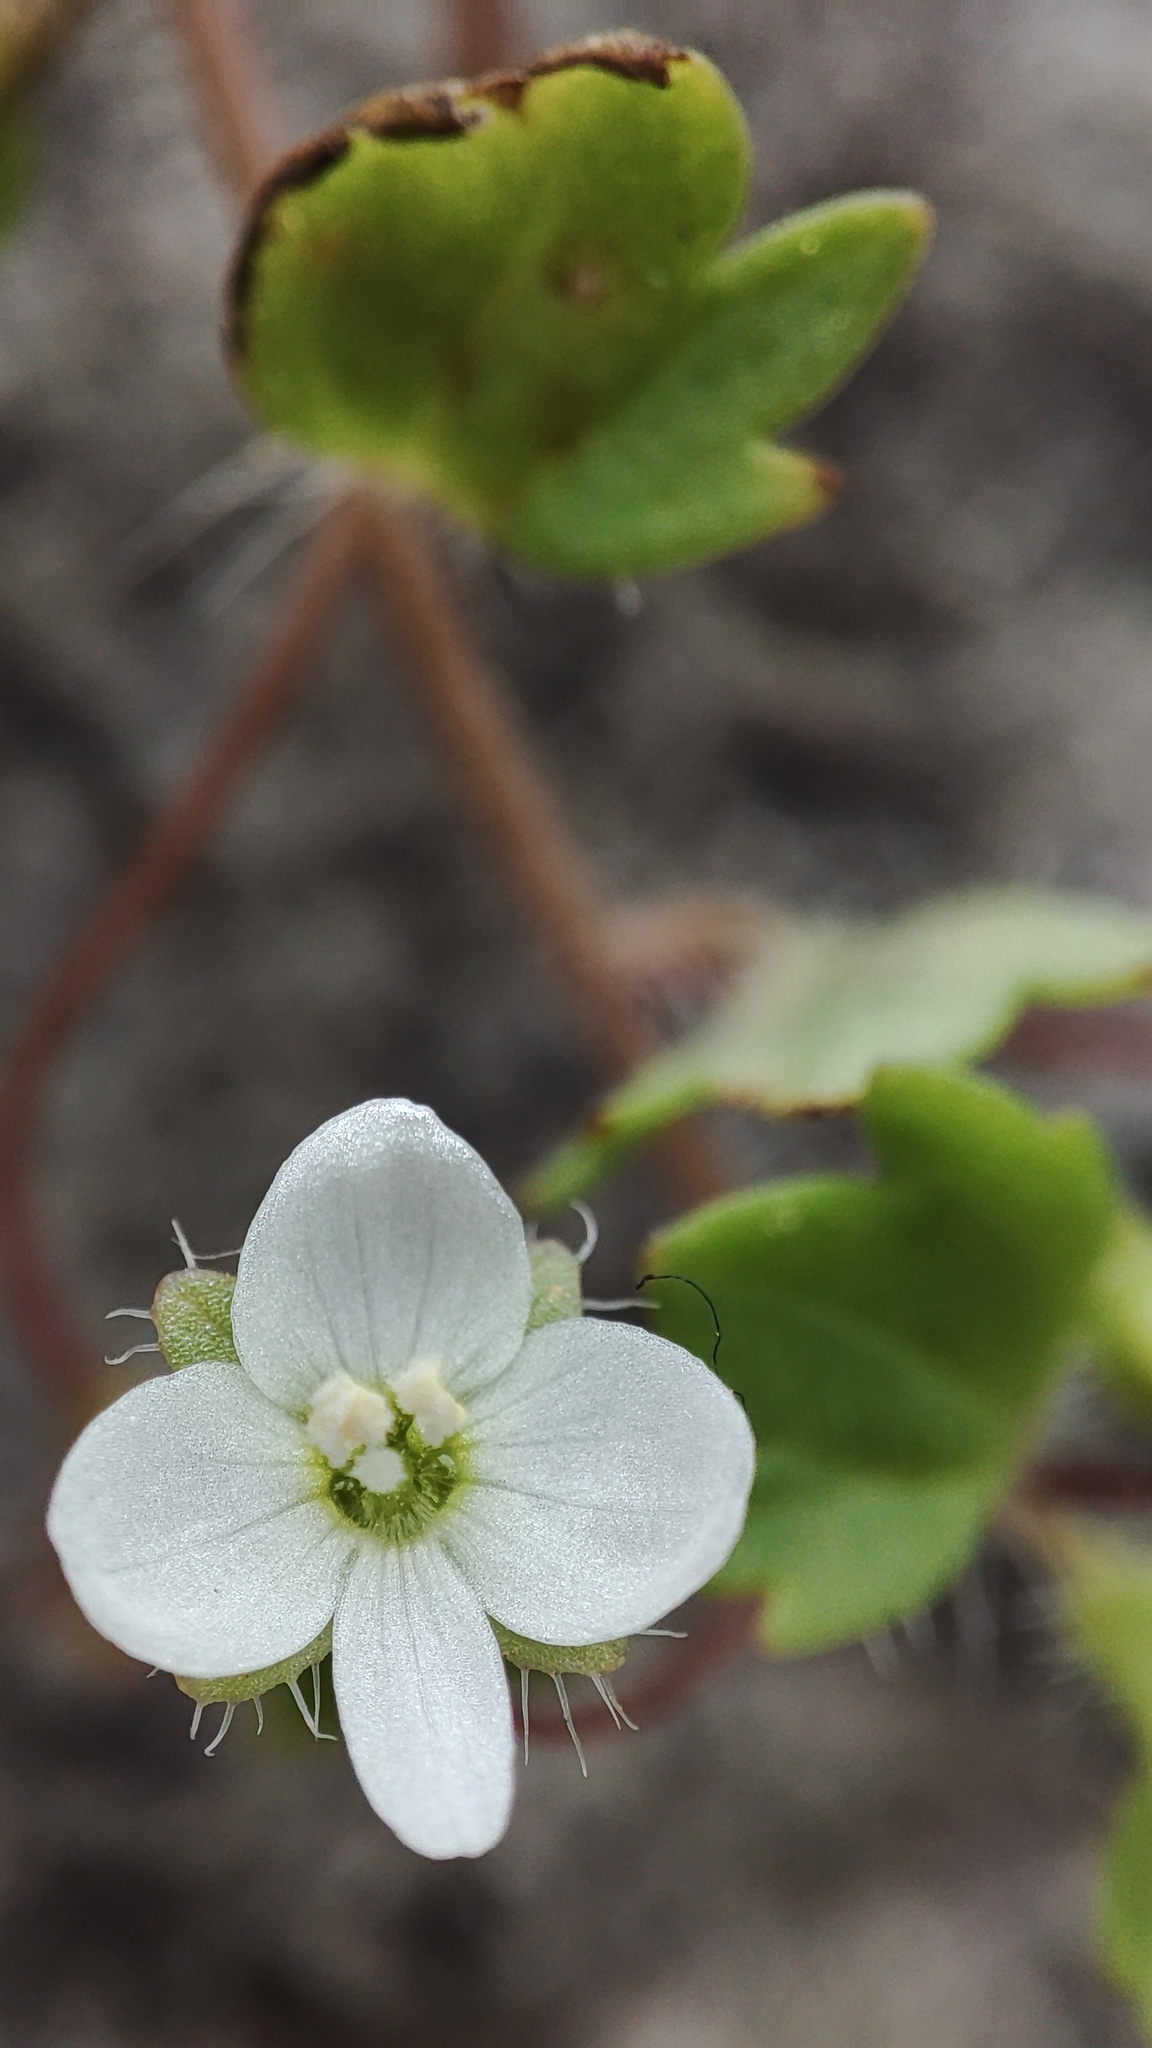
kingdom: Plantae
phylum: Tracheophyta
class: Magnoliopsida
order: Lamiales
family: Plantaginaceae
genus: Veronica
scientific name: Veronica cymbalaria
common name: Pale speedwell
